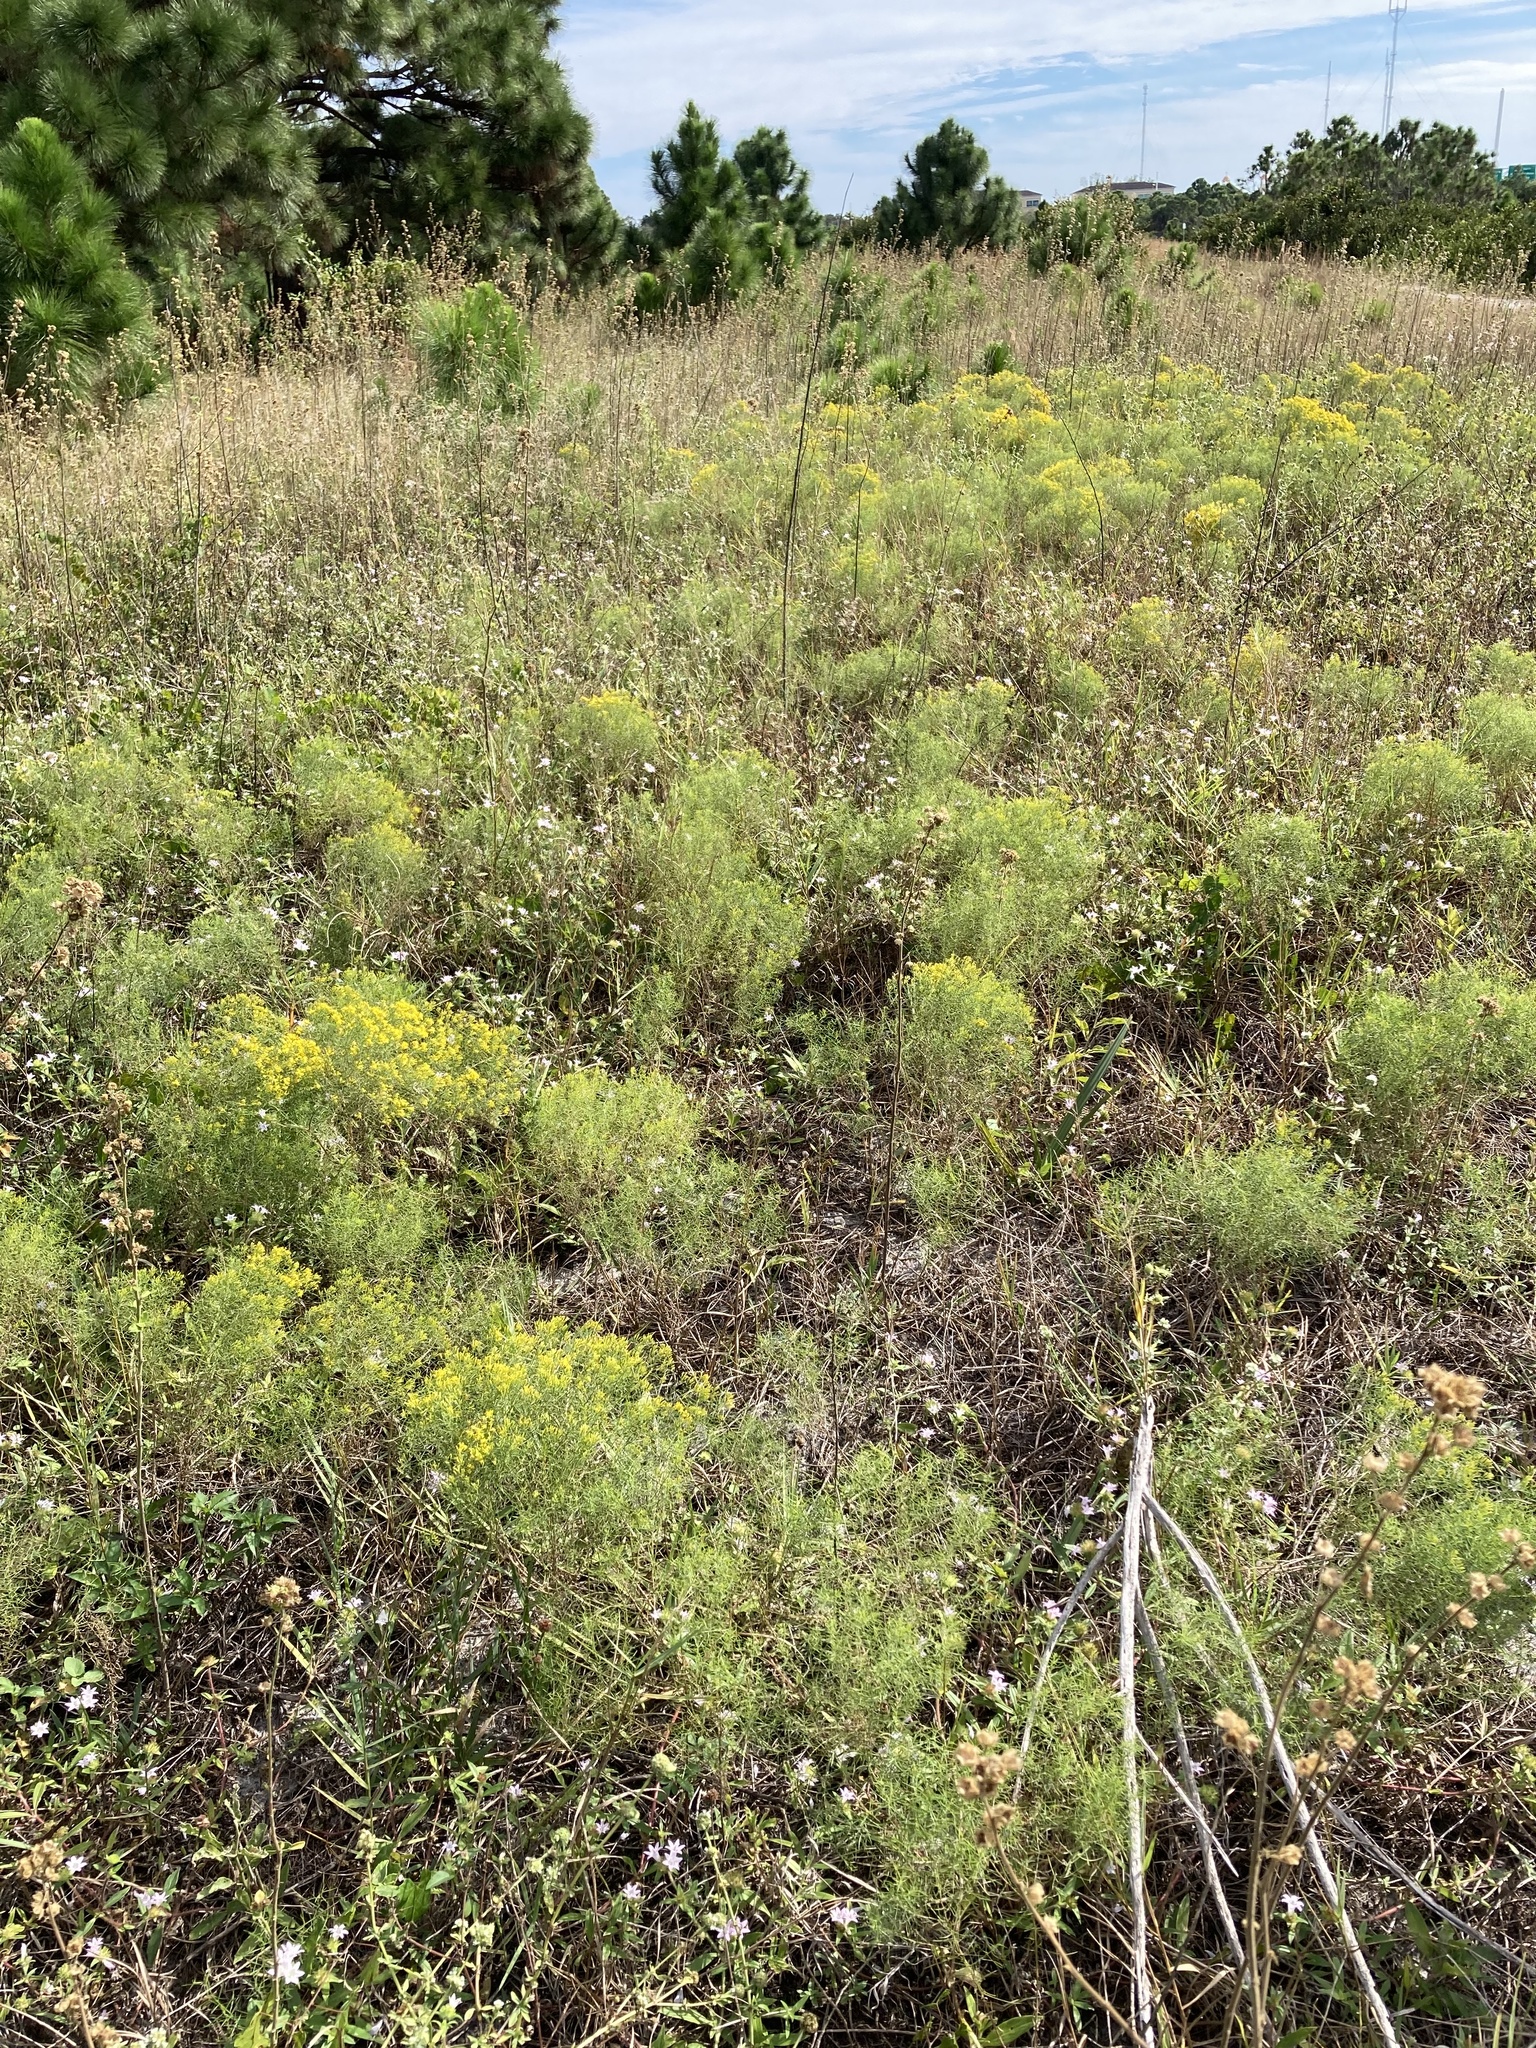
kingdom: Plantae
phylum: Tracheophyta
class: Magnoliopsida
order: Asterales
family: Asteraceae
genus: Euthamia
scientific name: Euthamia caroliniana
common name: Coastal plain goldentop
